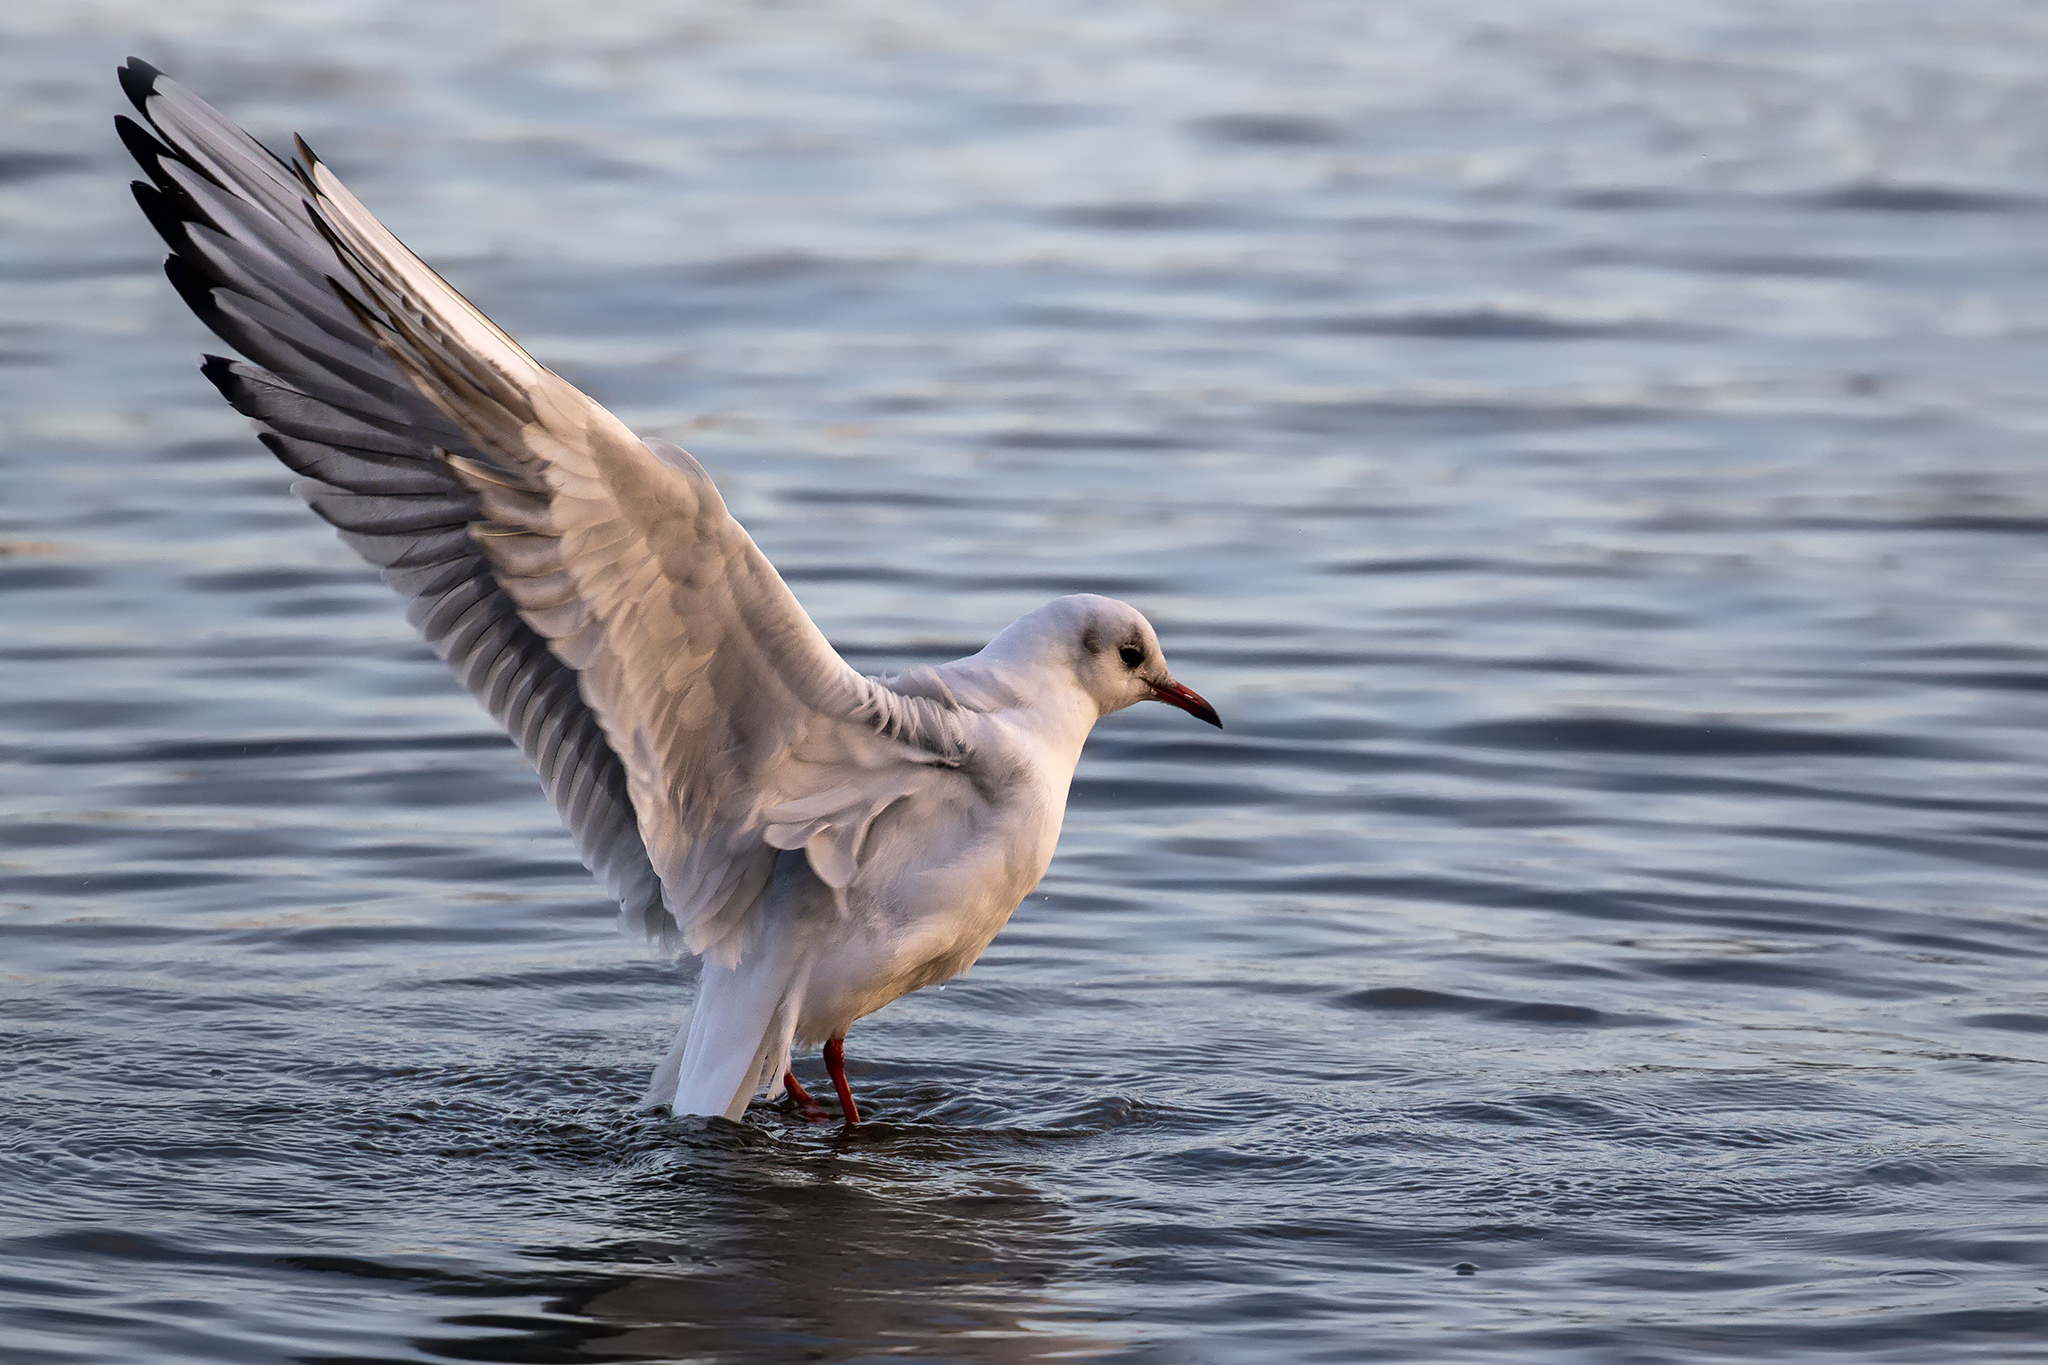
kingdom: Animalia
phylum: Chordata
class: Aves
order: Charadriiformes
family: Laridae
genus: Chroicocephalus
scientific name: Chroicocephalus ridibundus
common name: Black-headed gull
